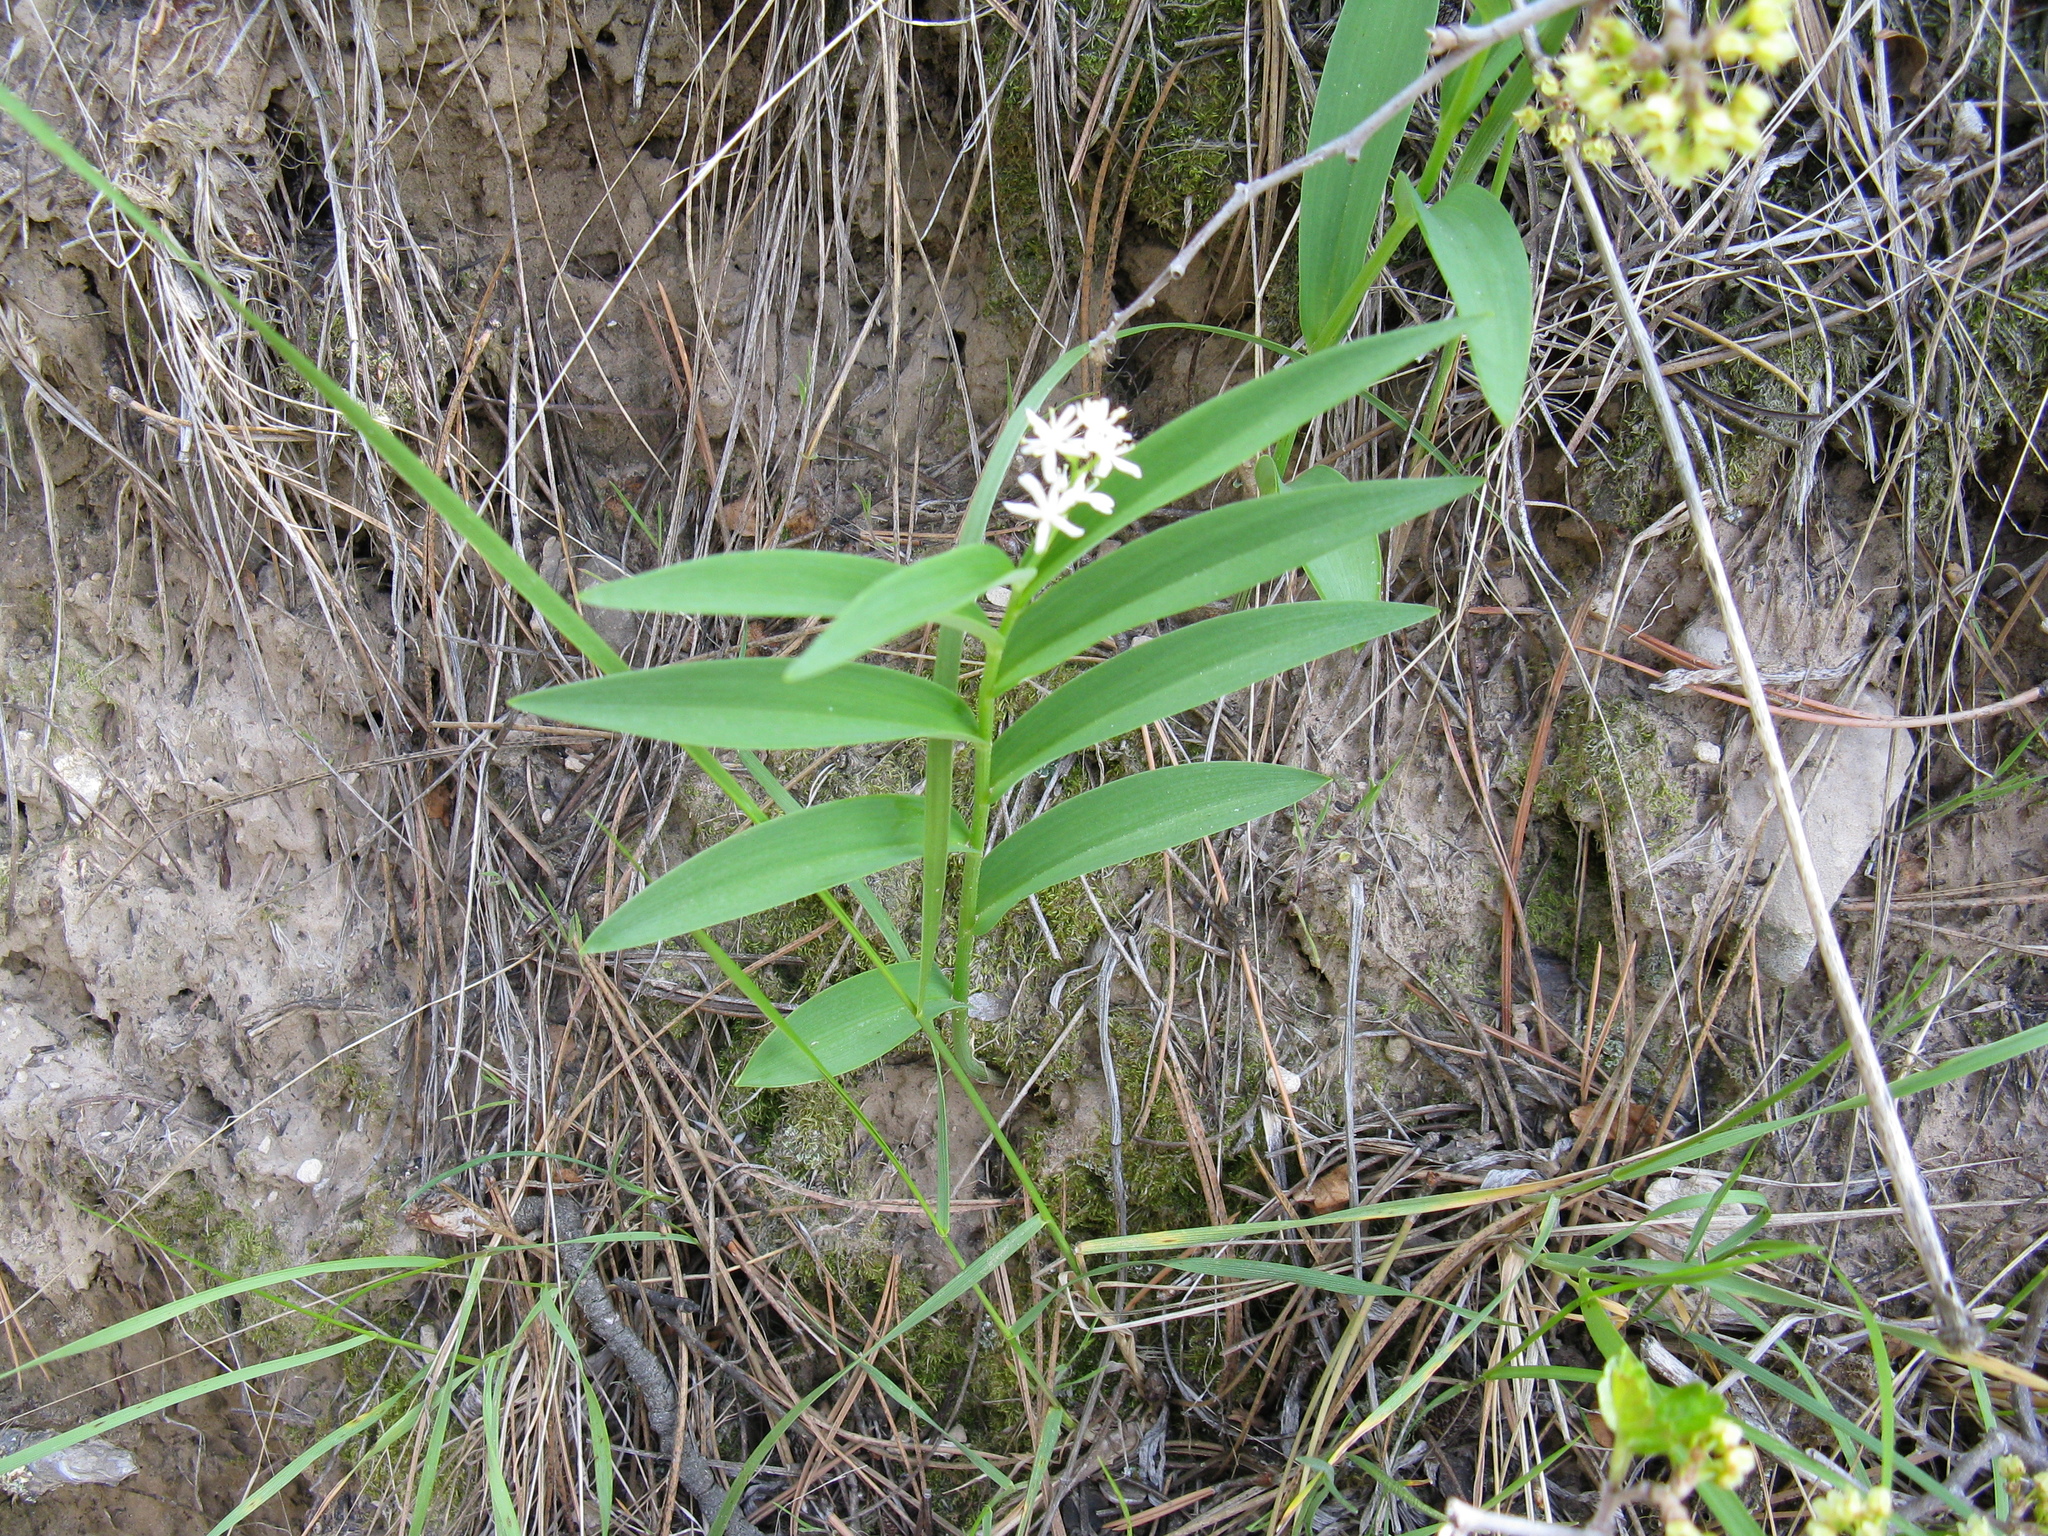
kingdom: Plantae
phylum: Tracheophyta
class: Liliopsida
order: Asparagales
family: Asparagaceae
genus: Maianthemum
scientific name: Maianthemum stellatum
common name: Little false solomon's seal
